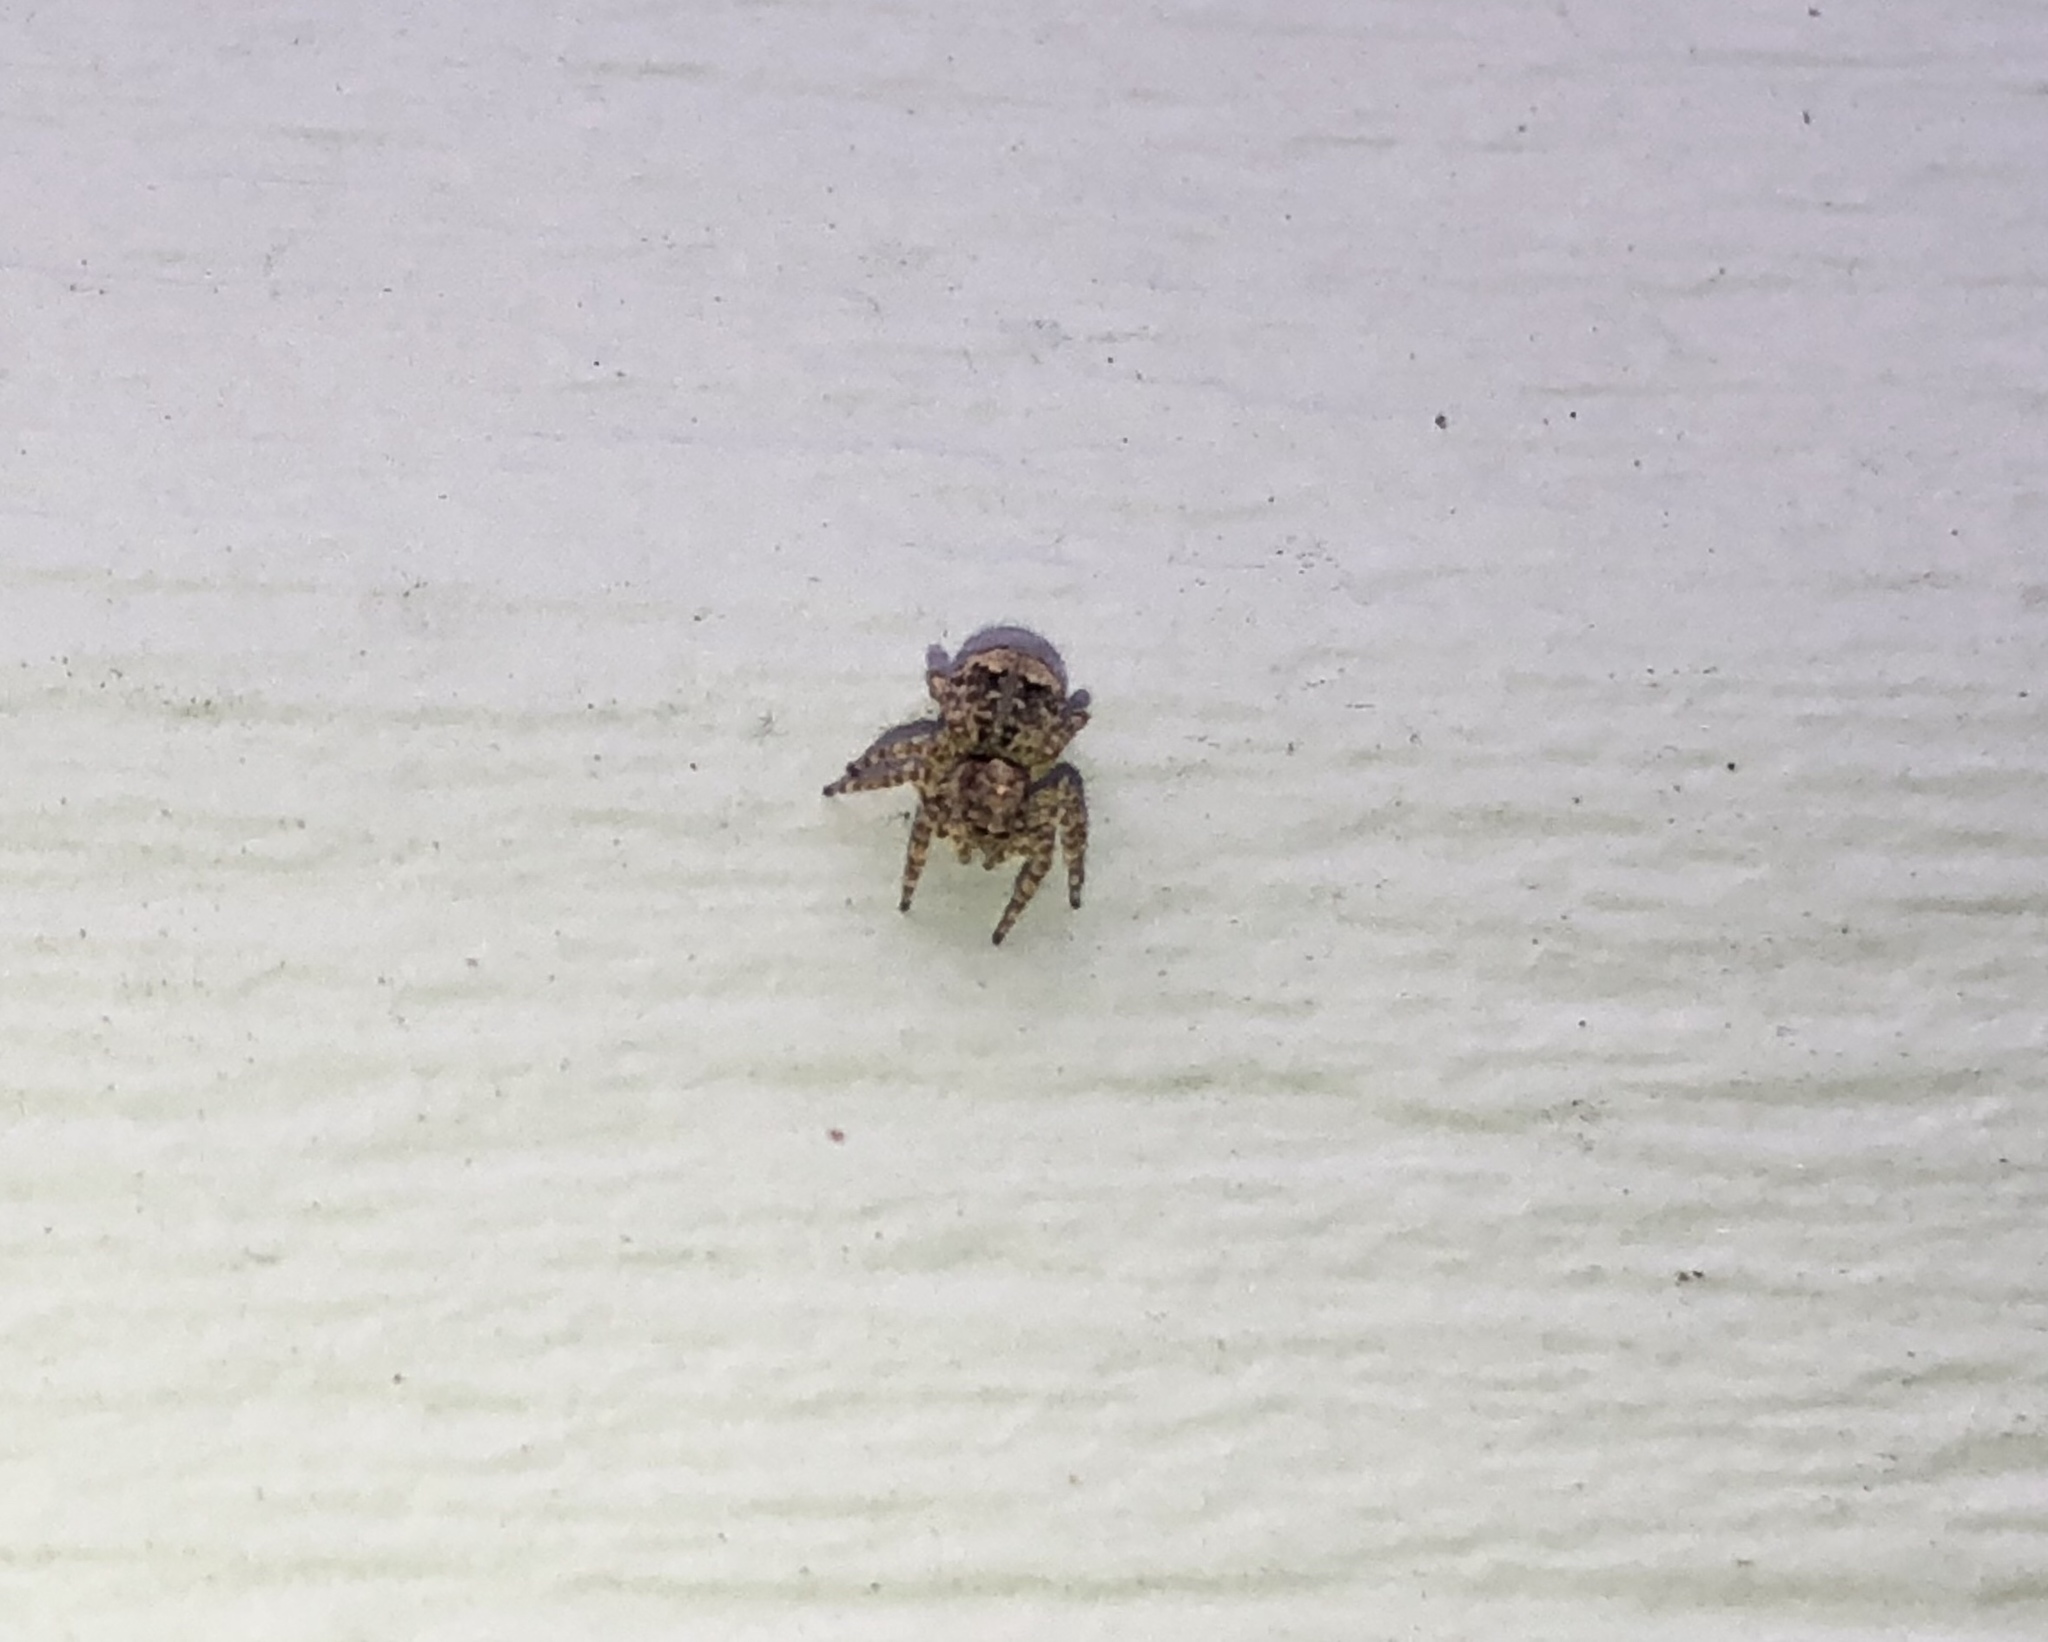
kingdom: Animalia
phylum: Arthropoda
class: Arachnida
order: Araneae
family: Salticidae
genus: Attulus
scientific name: Attulus fasciger
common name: Asiatic wall jumping spider
